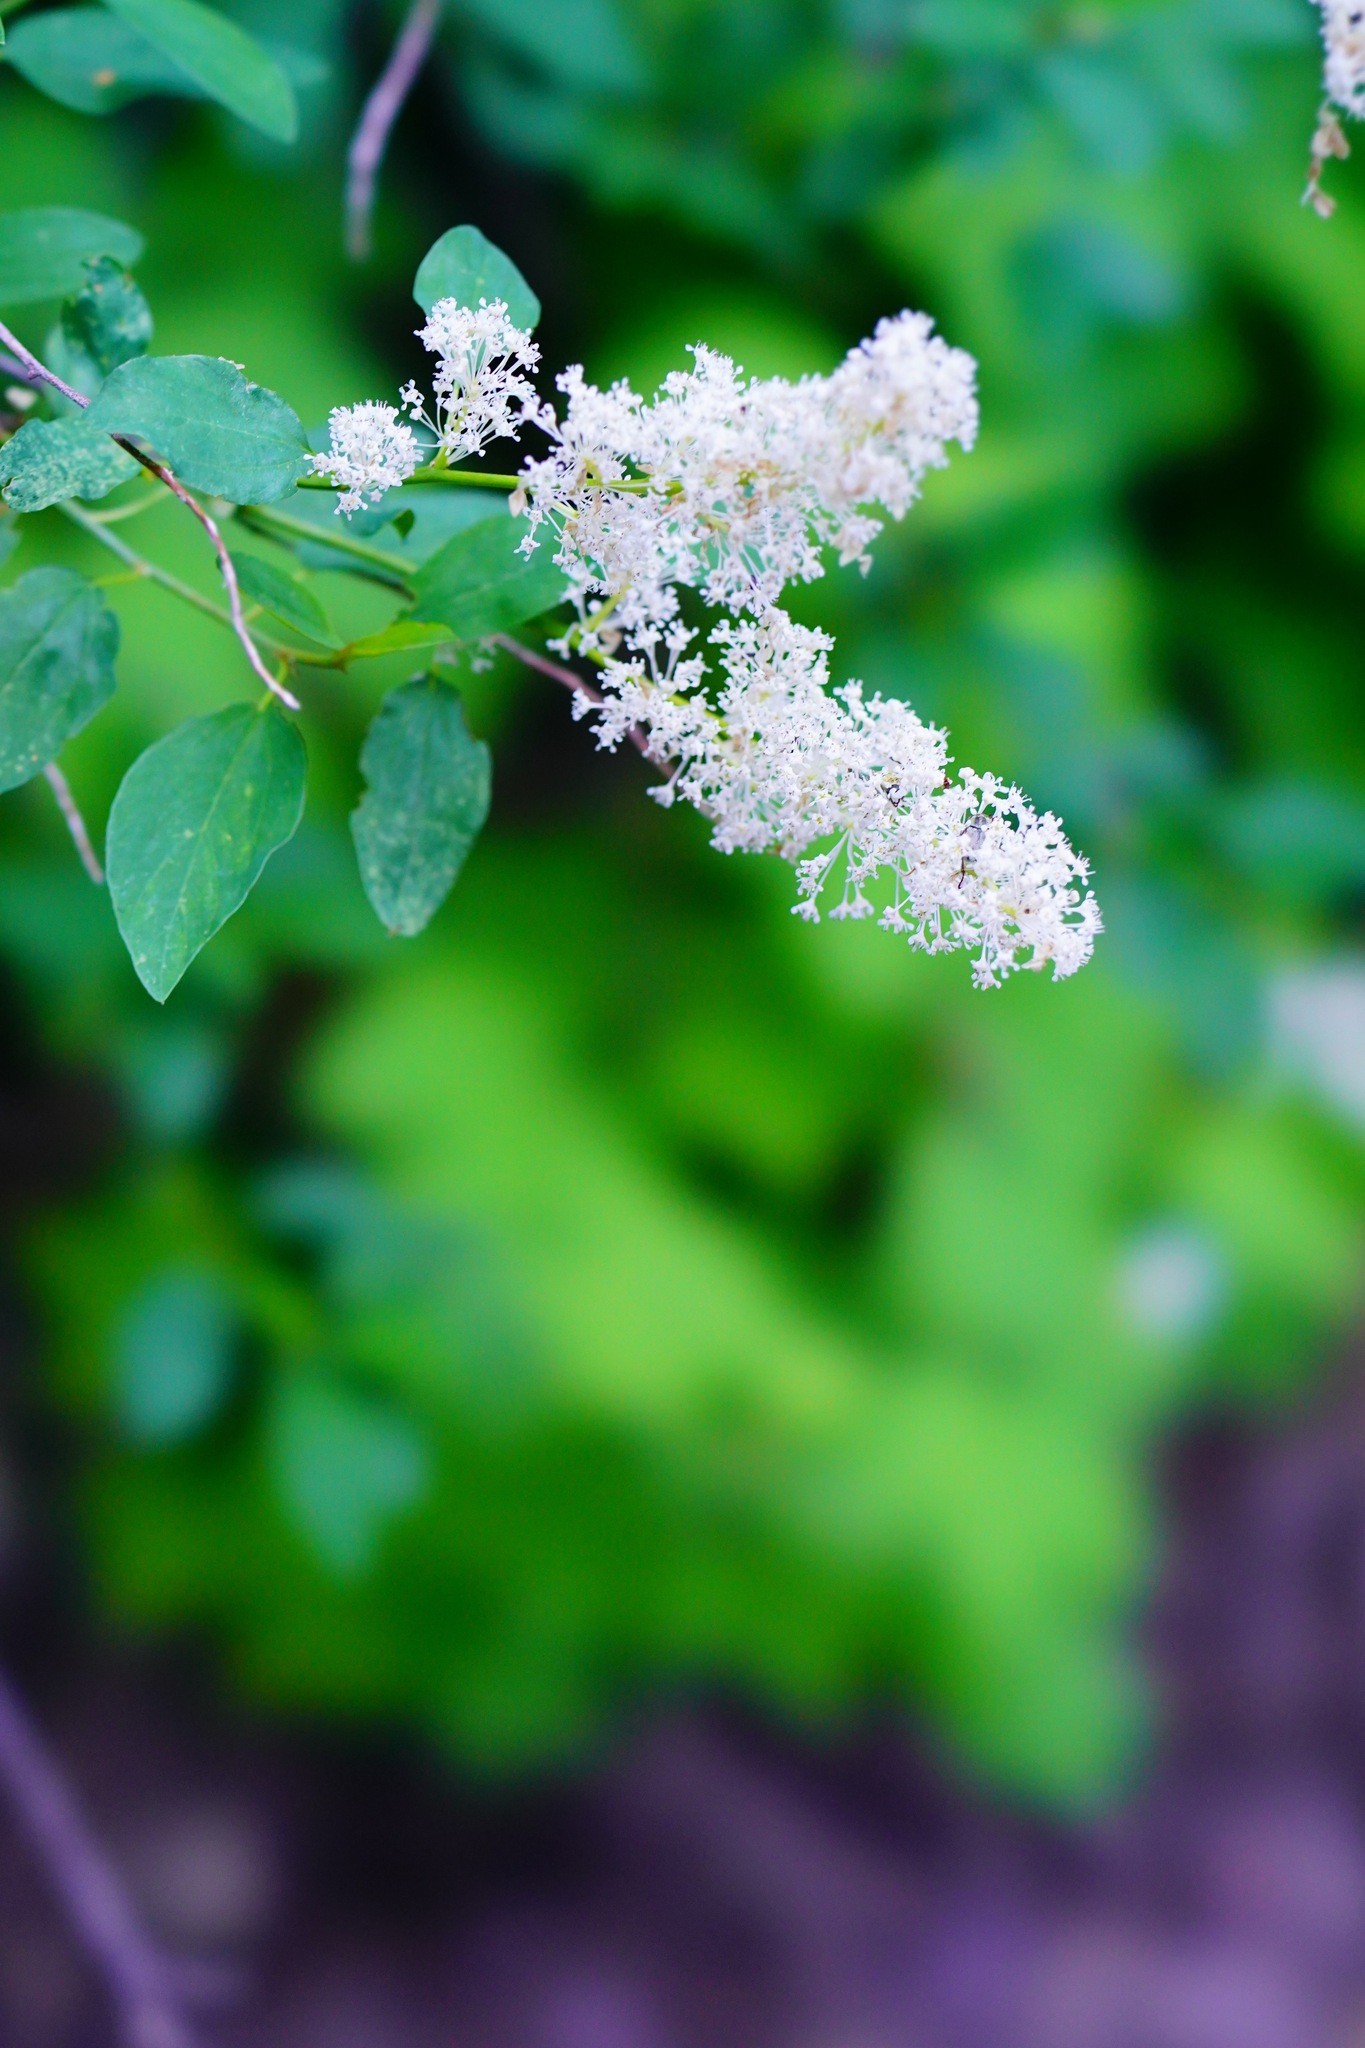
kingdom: Plantae
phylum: Tracheophyta
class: Magnoliopsida
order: Rosales
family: Rhamnaceae
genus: Ceanothus
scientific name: Ceanothus integerrimus
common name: Deerbrush ceanothus
